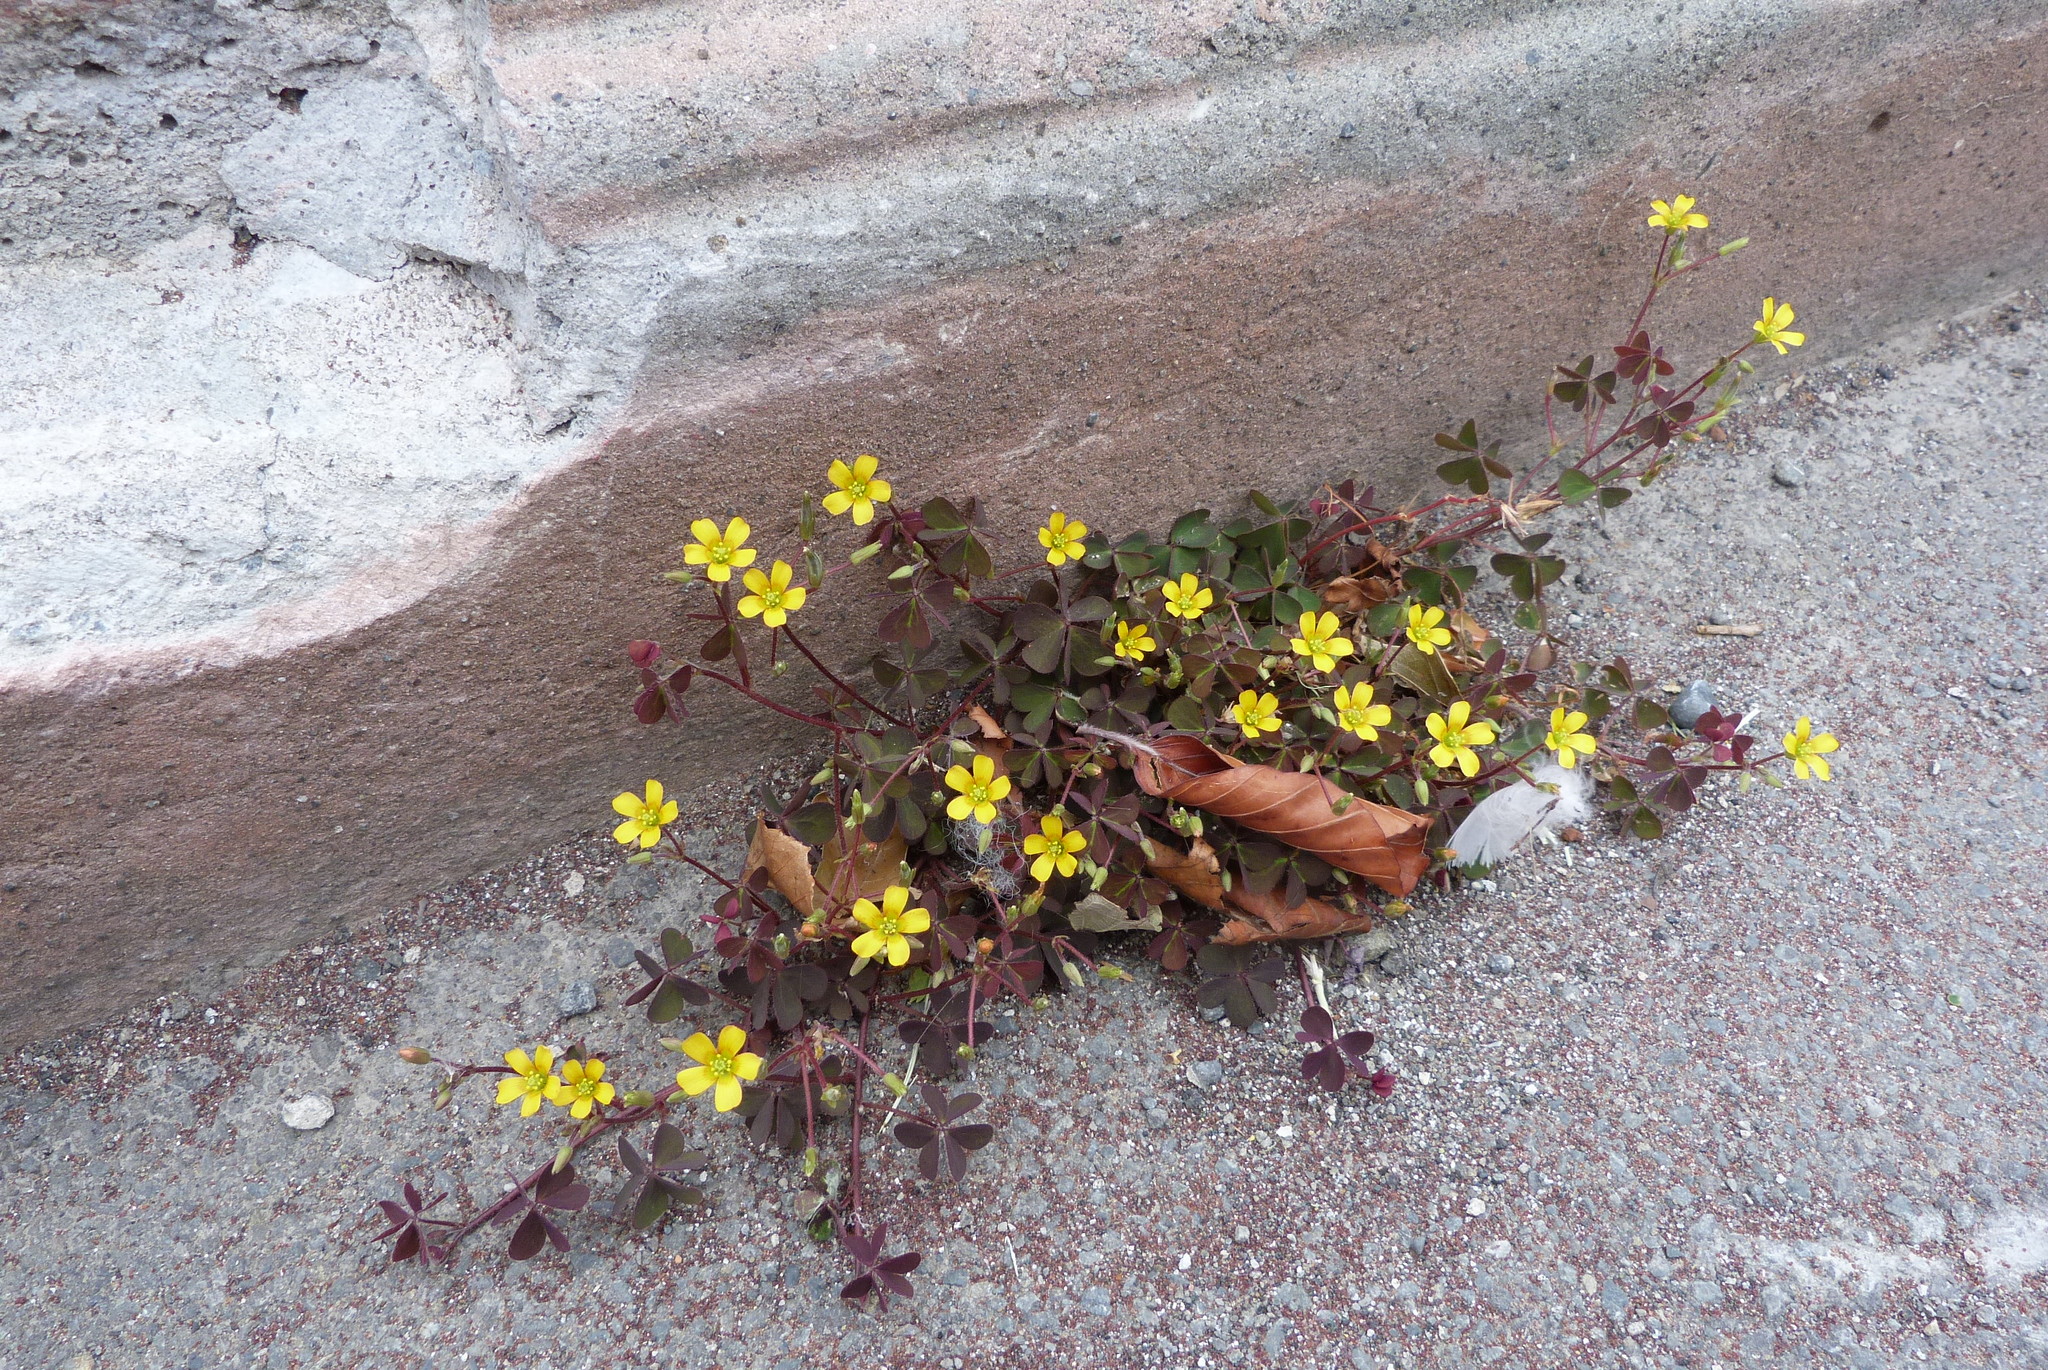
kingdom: Plantae
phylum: Tracheophyta
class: Magnoliopsida
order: Oxalidales
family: Oxalidaceae
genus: Oxalis
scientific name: Oxalis corniculata
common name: Procumbent yellow-sorrel
